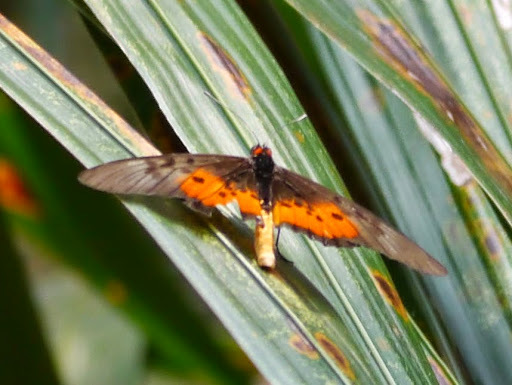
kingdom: Animalia
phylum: Arthropoda
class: Insecta
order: Lepidoptera
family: Nymphalidae
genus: Rubraea
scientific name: Rubraea
